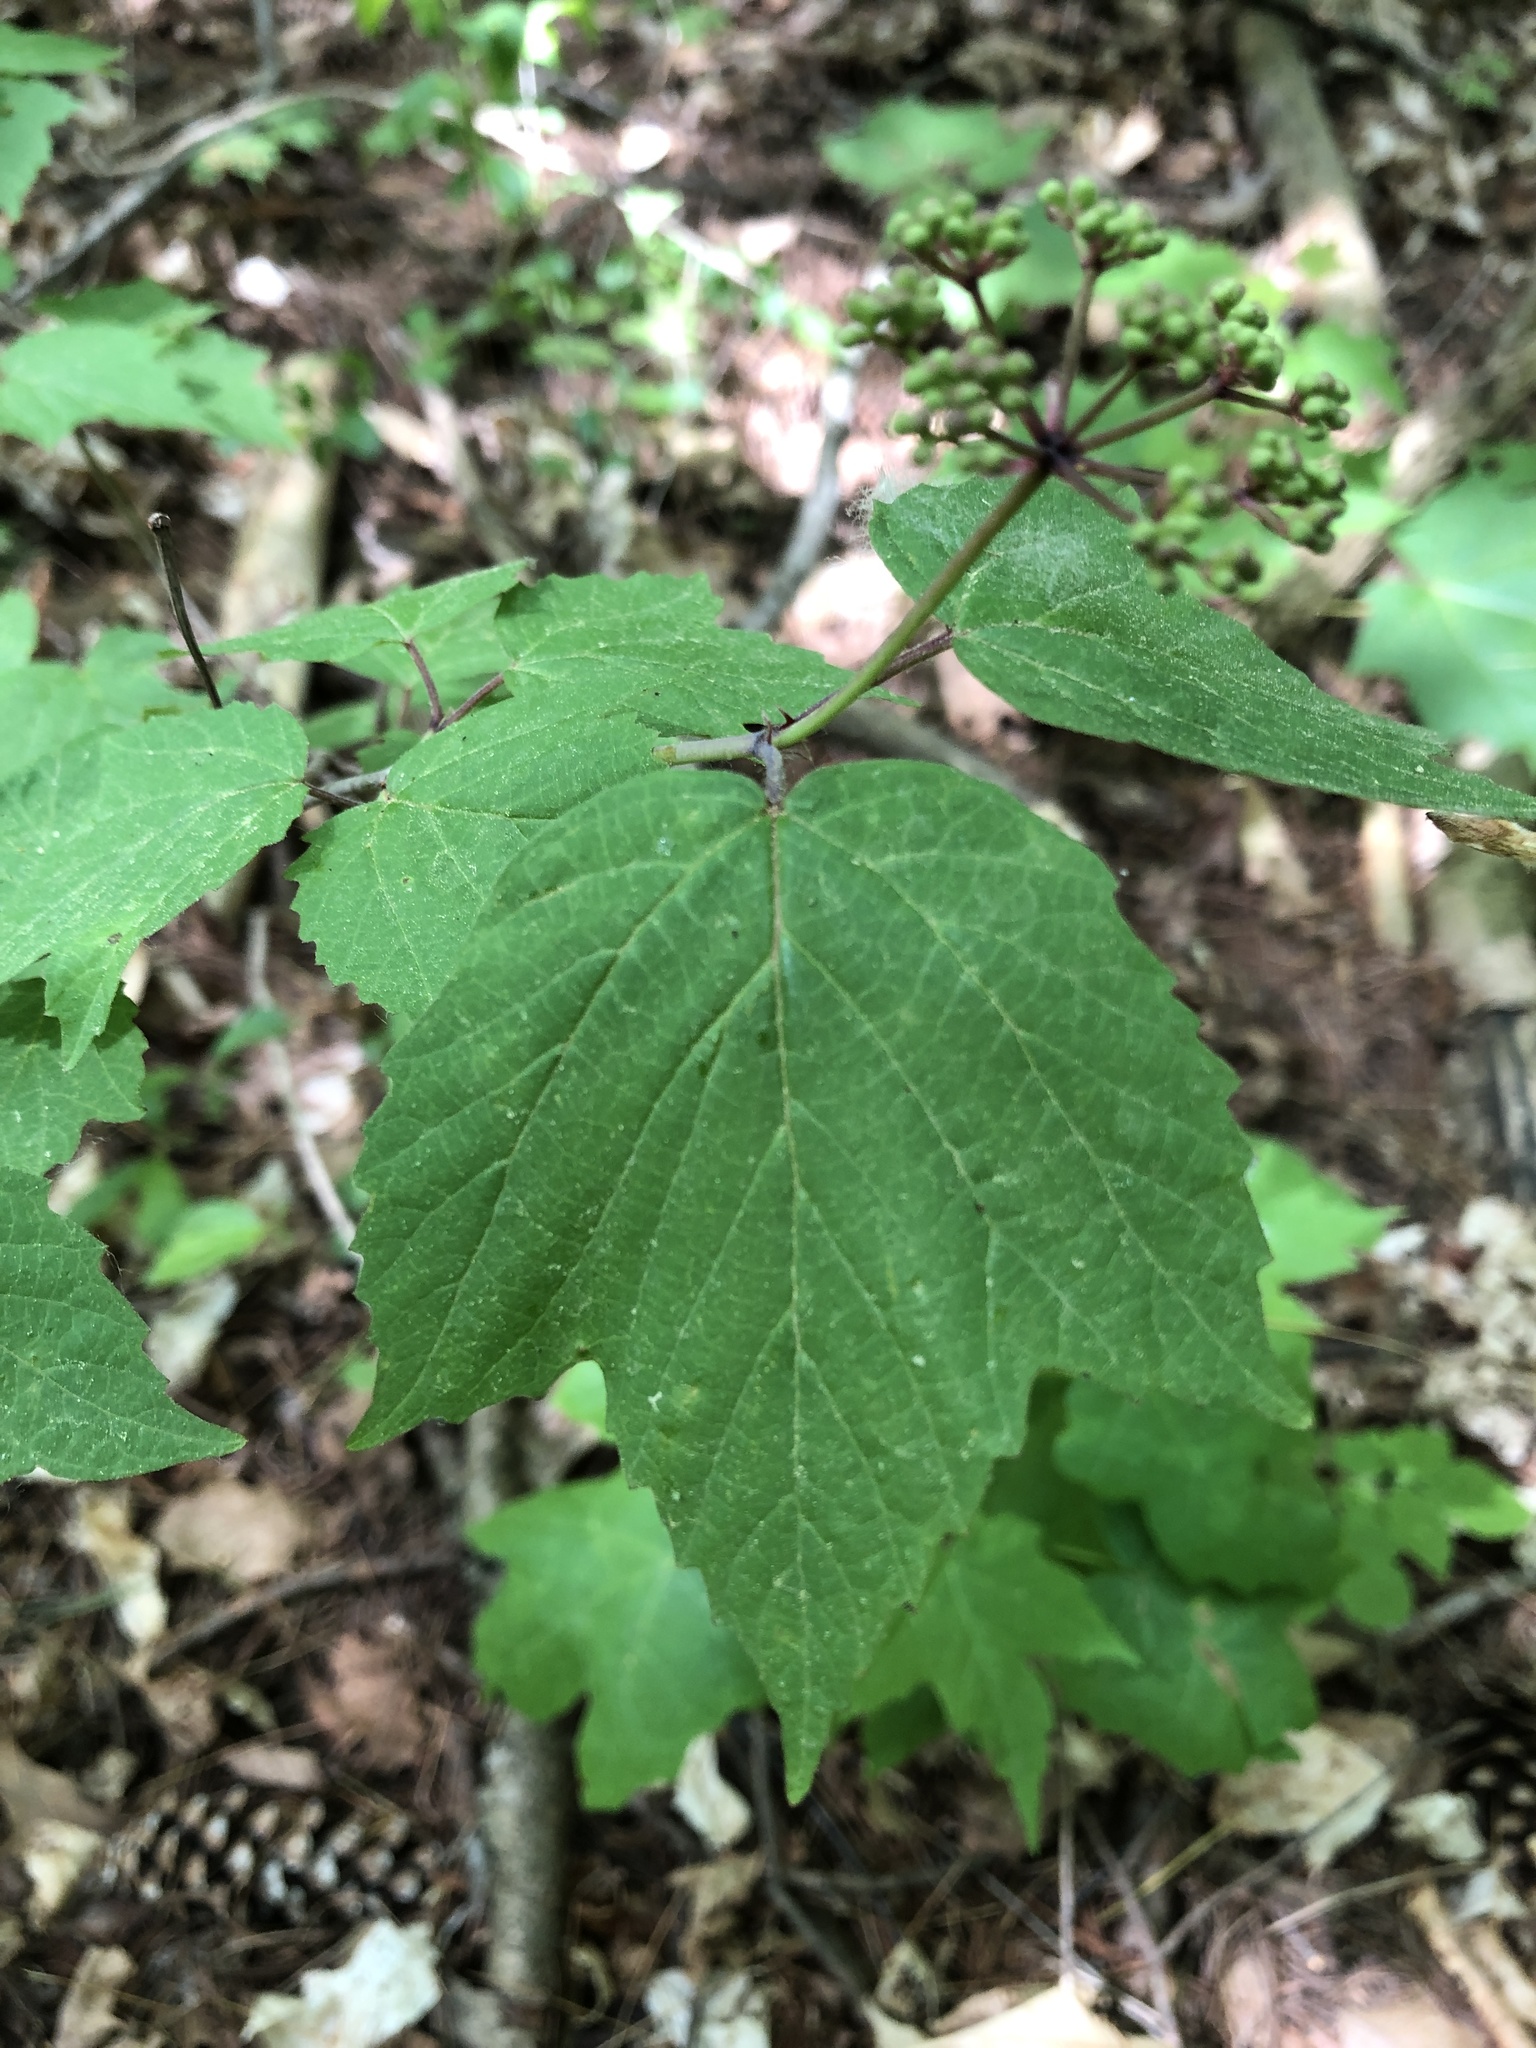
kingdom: Plantae
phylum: Tracheophyta
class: Magnoliopsida
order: Dipsacales
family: Viburnaceae
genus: Viburnum
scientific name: Viburnum acerifolium
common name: Dockmackie
